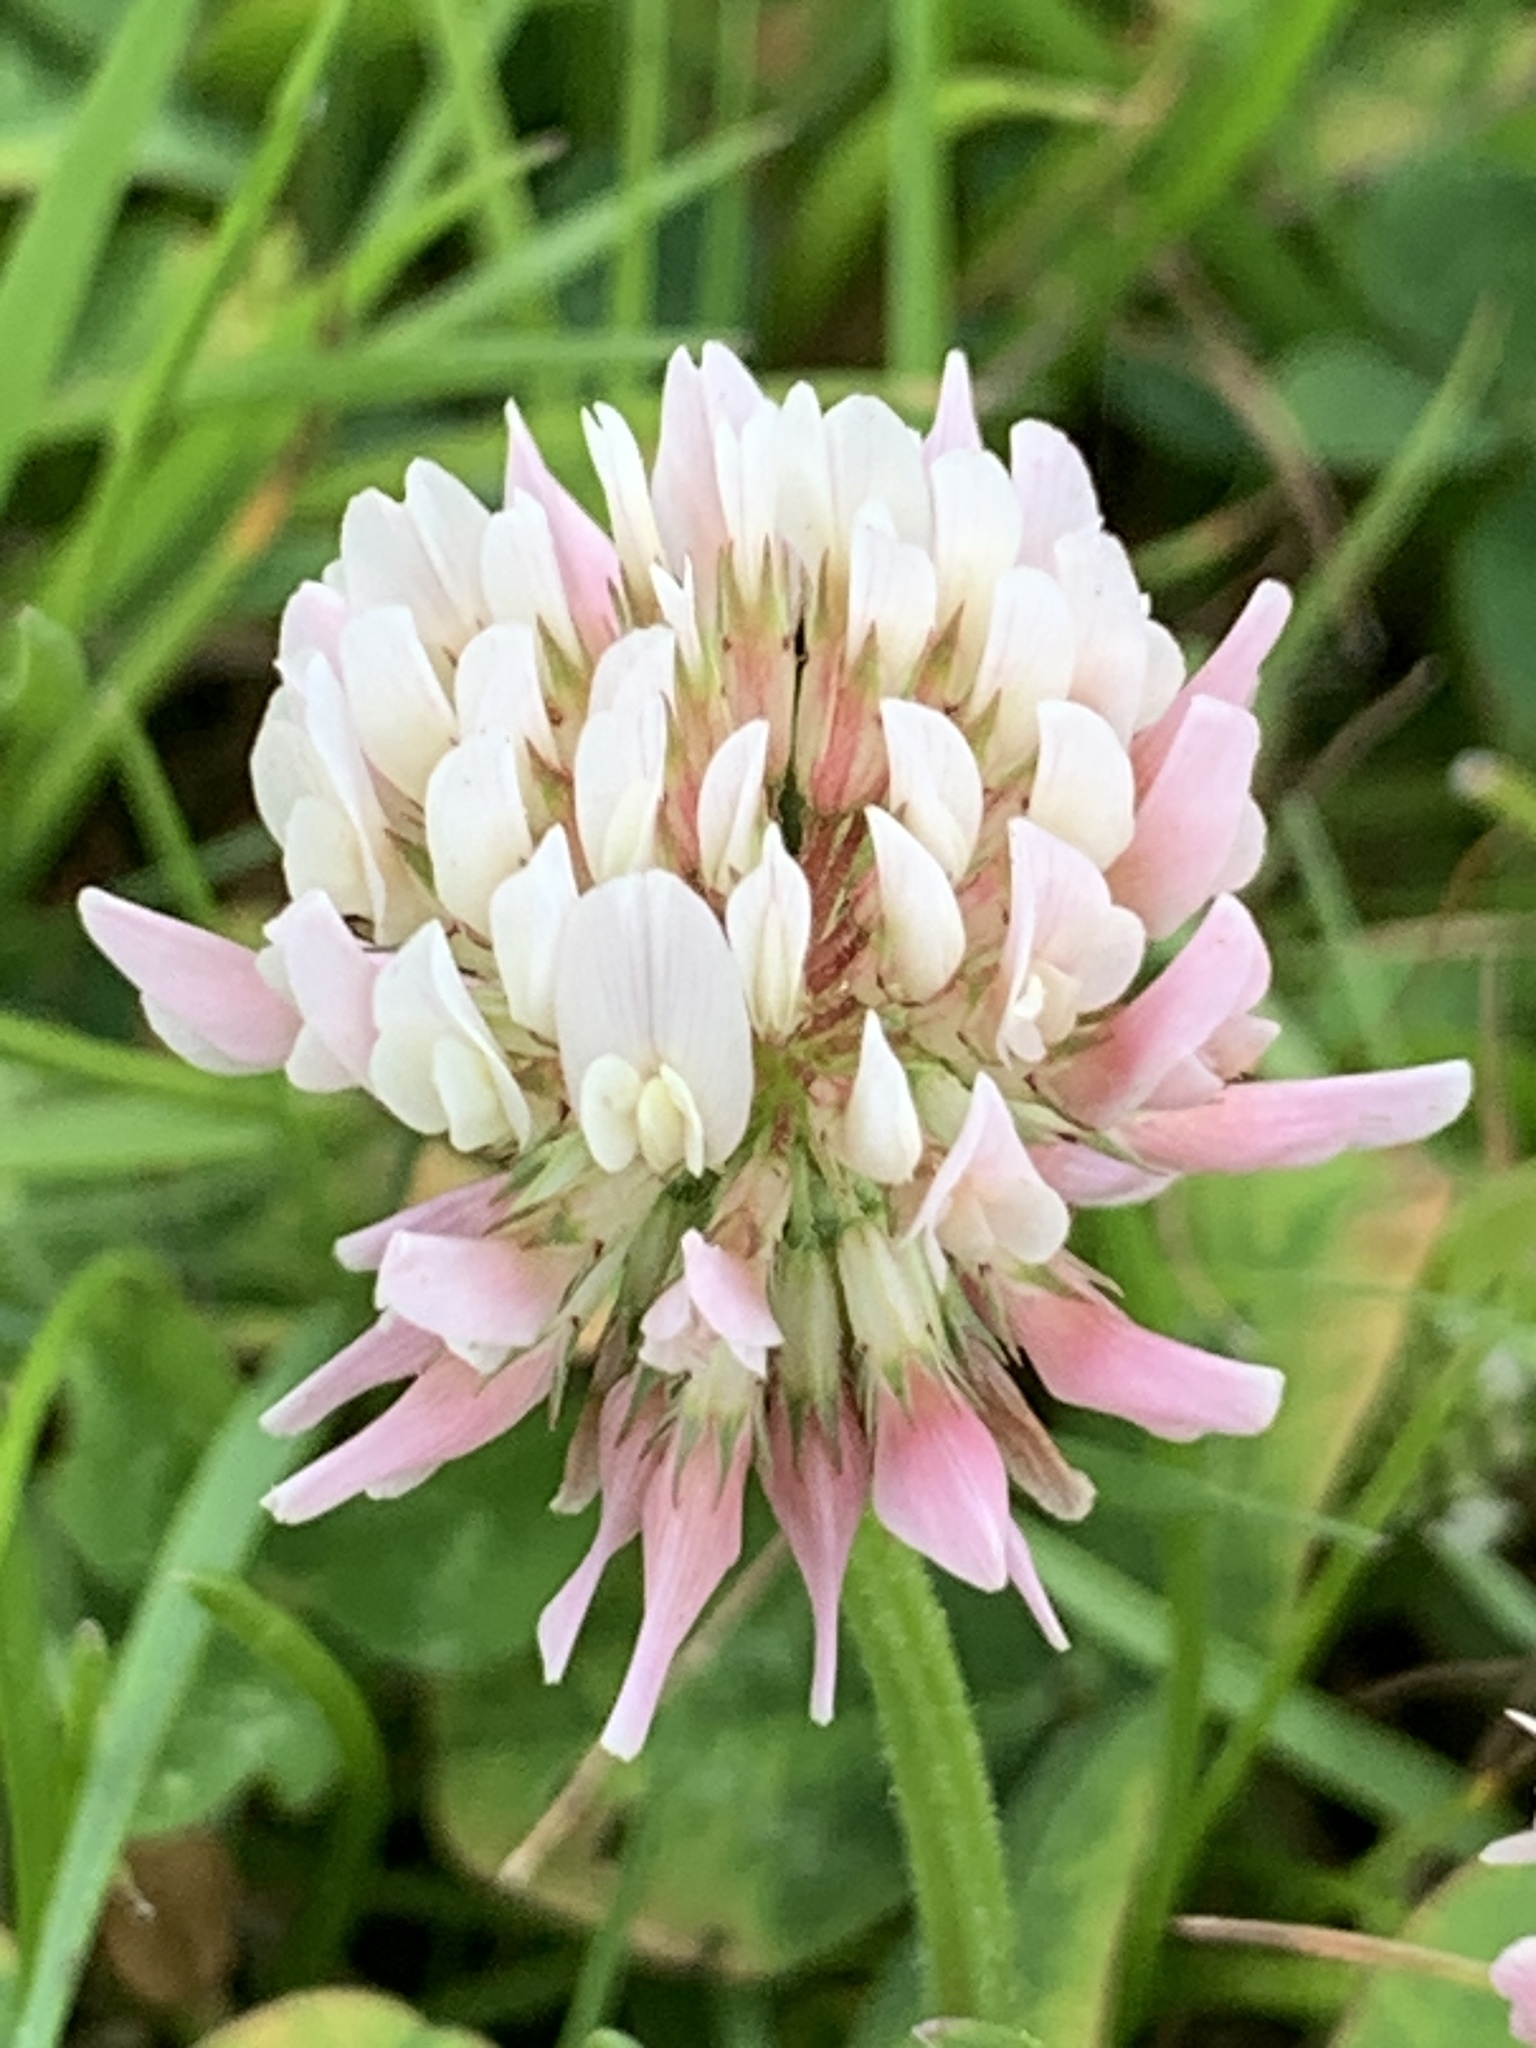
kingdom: Plantae
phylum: Tracheophyta
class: Magnoliopsida
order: Fabales
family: Fabaceae
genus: Trifolium
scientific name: Trifolium repens
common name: White clover
